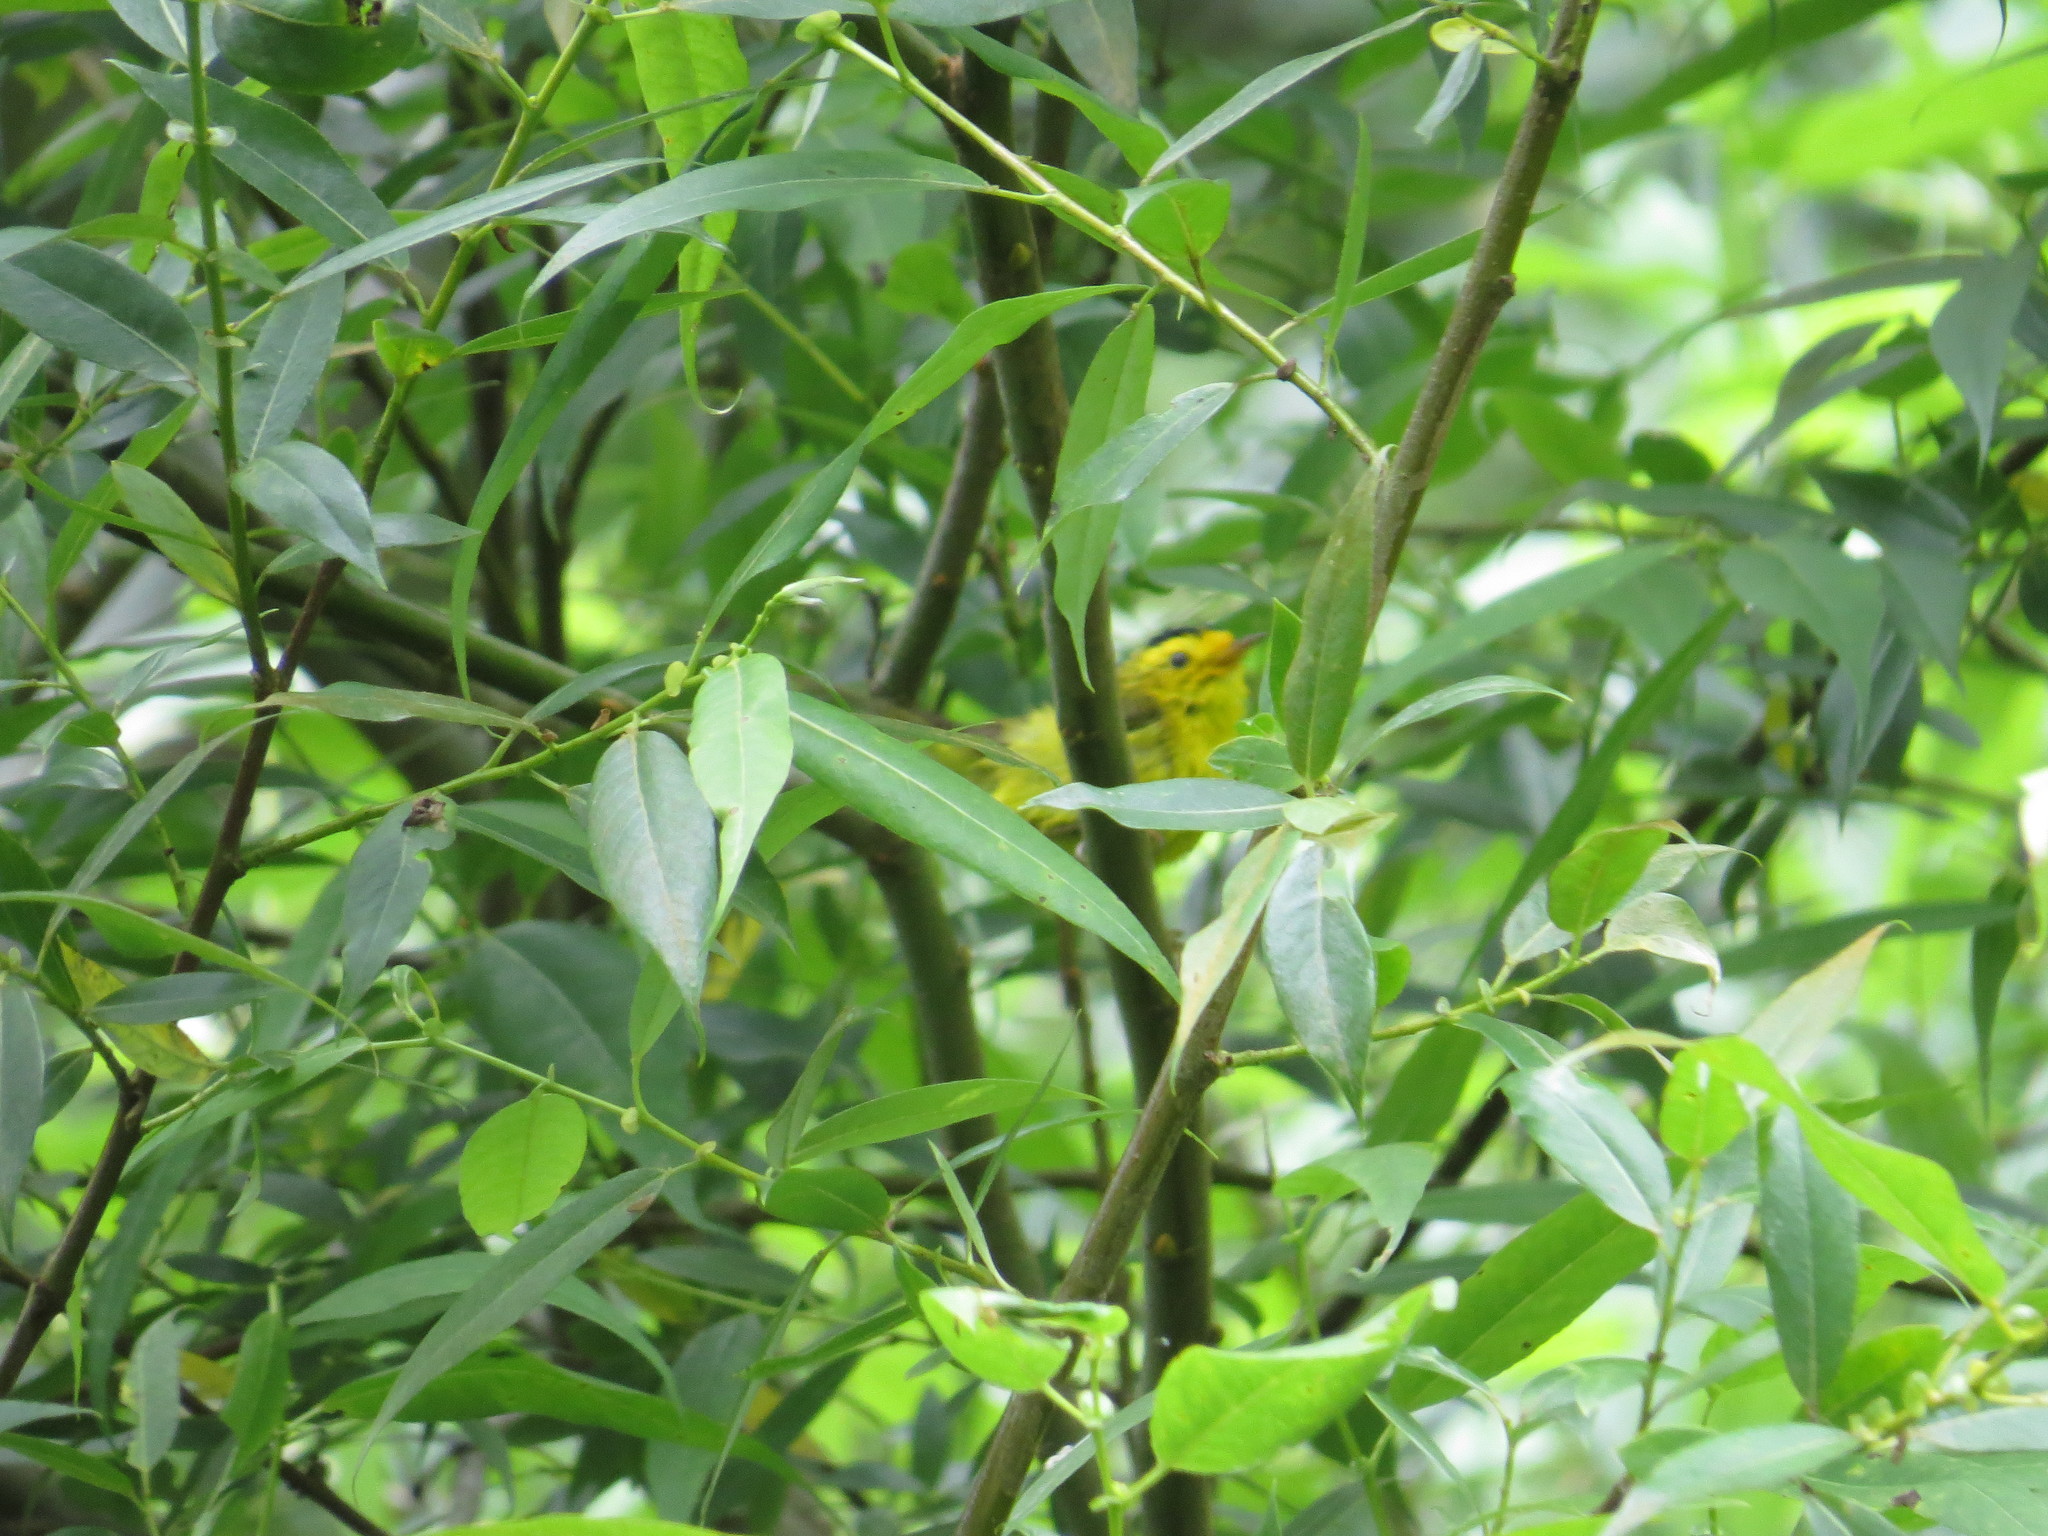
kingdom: Animalia
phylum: Chordata
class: Aves
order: Passeriformes
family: Parulidae
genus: Cardellina
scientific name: Cardellina pusilla
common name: Wilson's warbler
